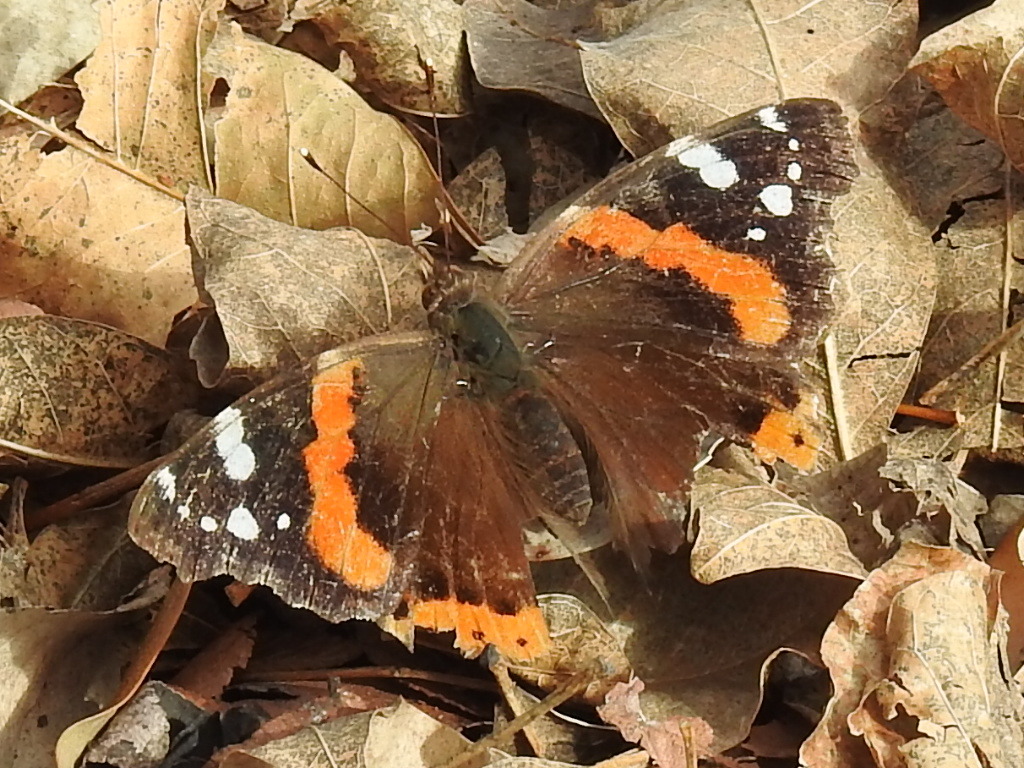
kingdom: Animalia
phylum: Arthropoda
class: Insecta
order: Lepidoptera
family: Nymphalidae
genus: Vanessa
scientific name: Vanessa atalanta
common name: Red admiral
